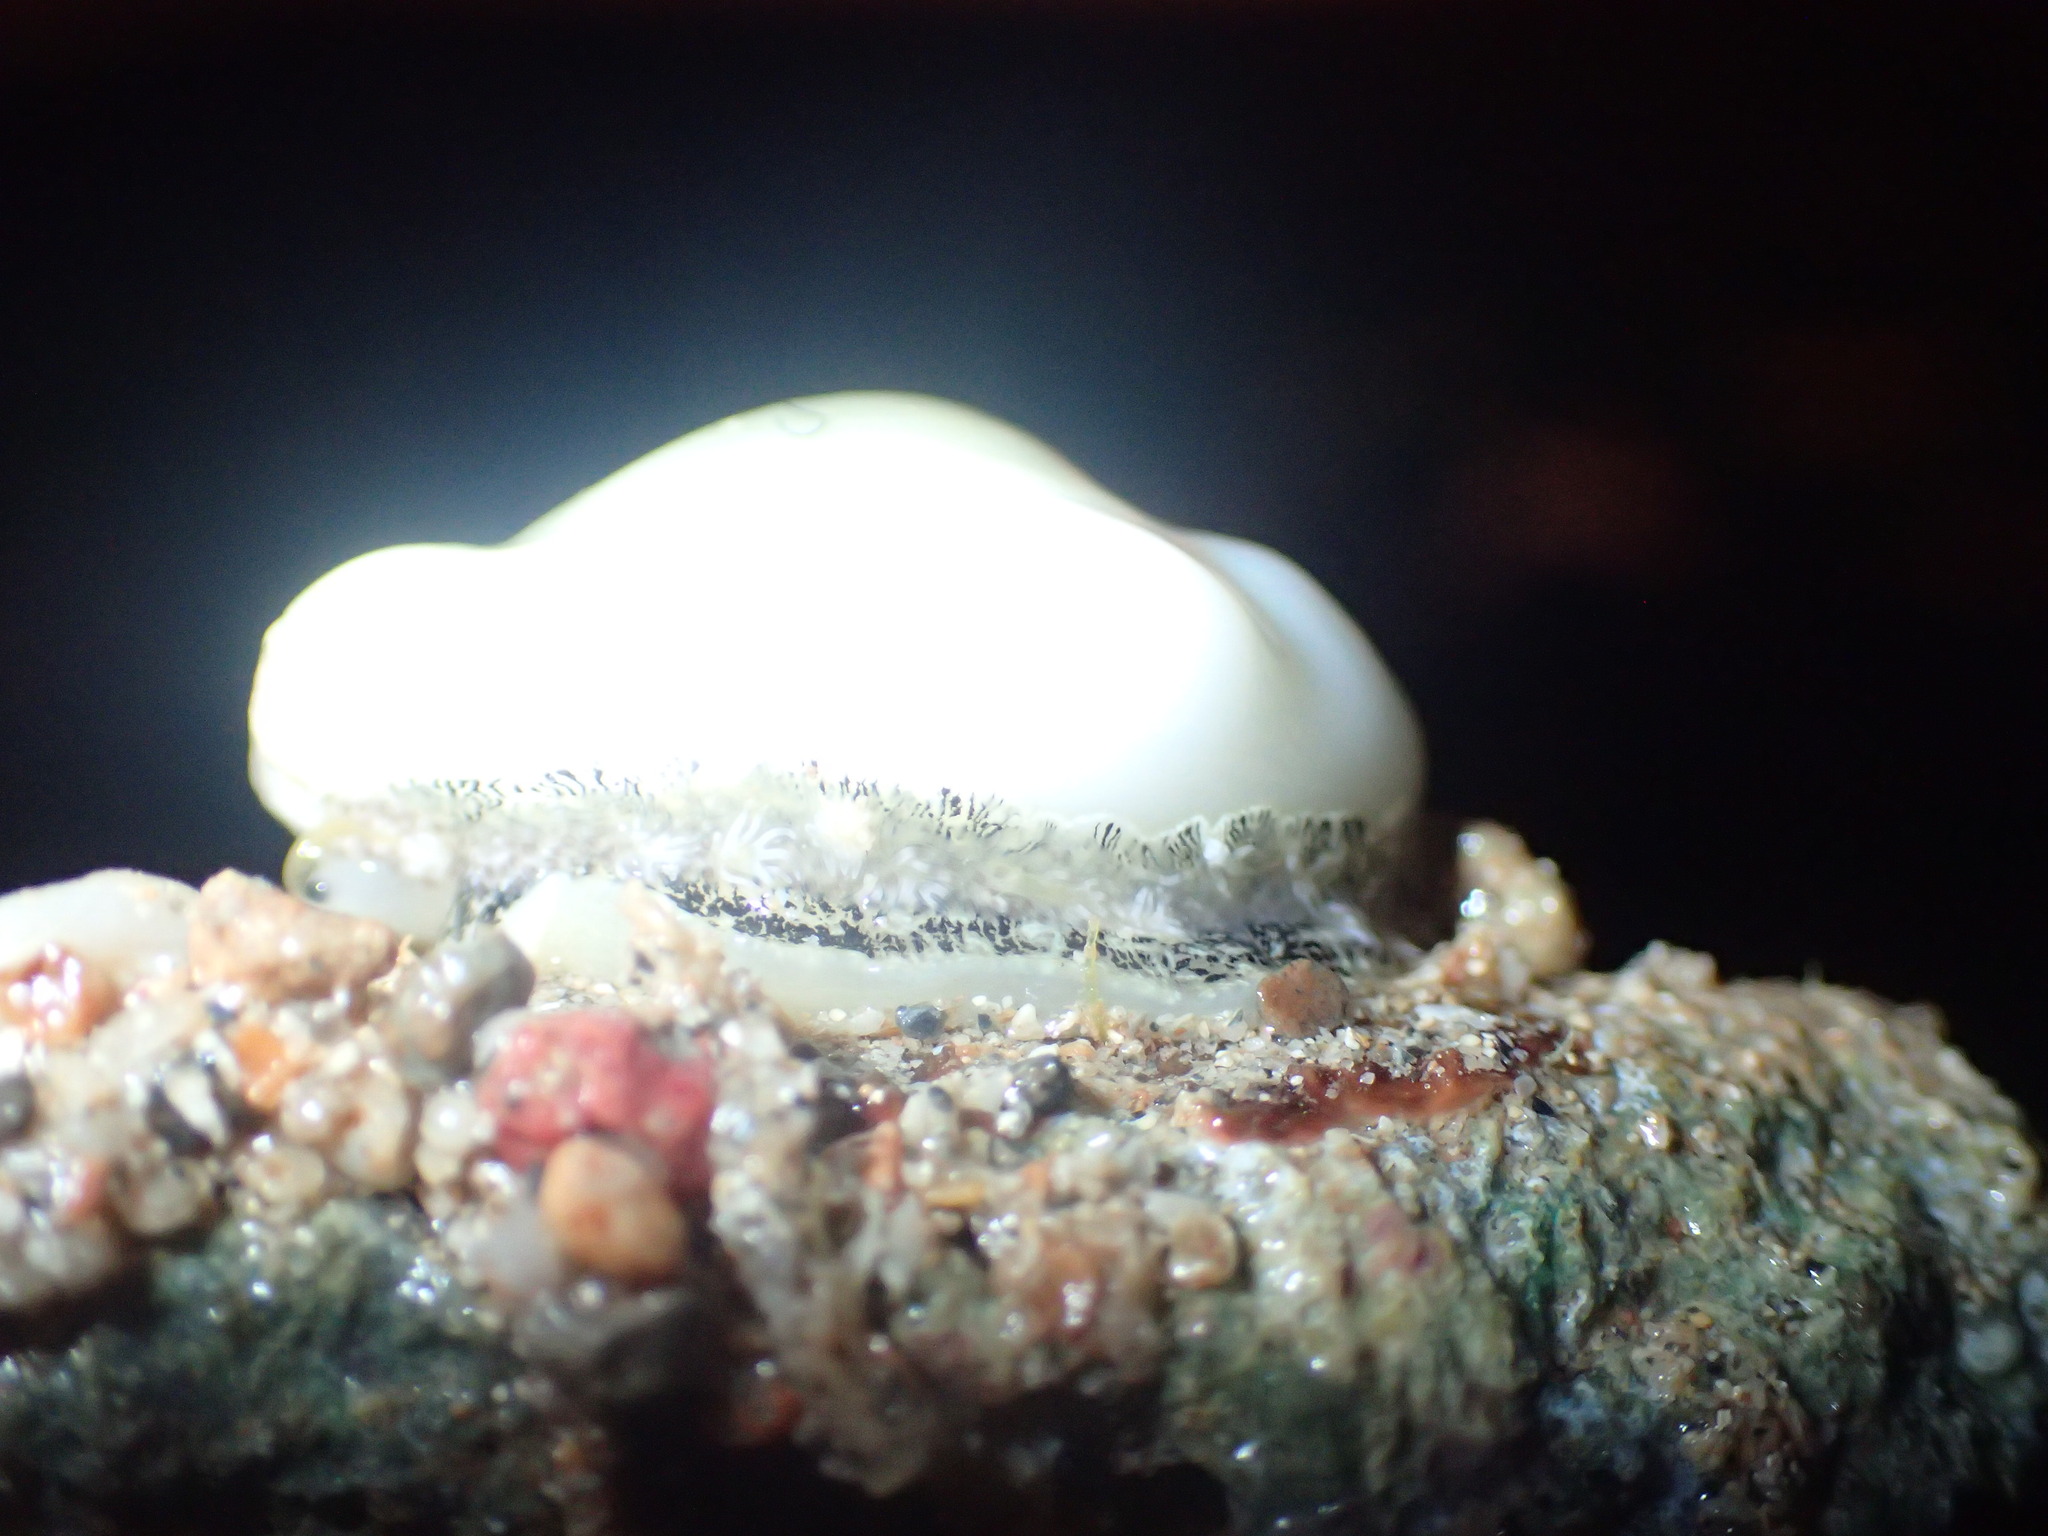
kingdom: Animalia
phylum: Mollusca
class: Gastropoda
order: Littorinimorpha
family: Cypraeidae
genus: Monetaria
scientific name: Monetaria moneta
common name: Money cowrie
